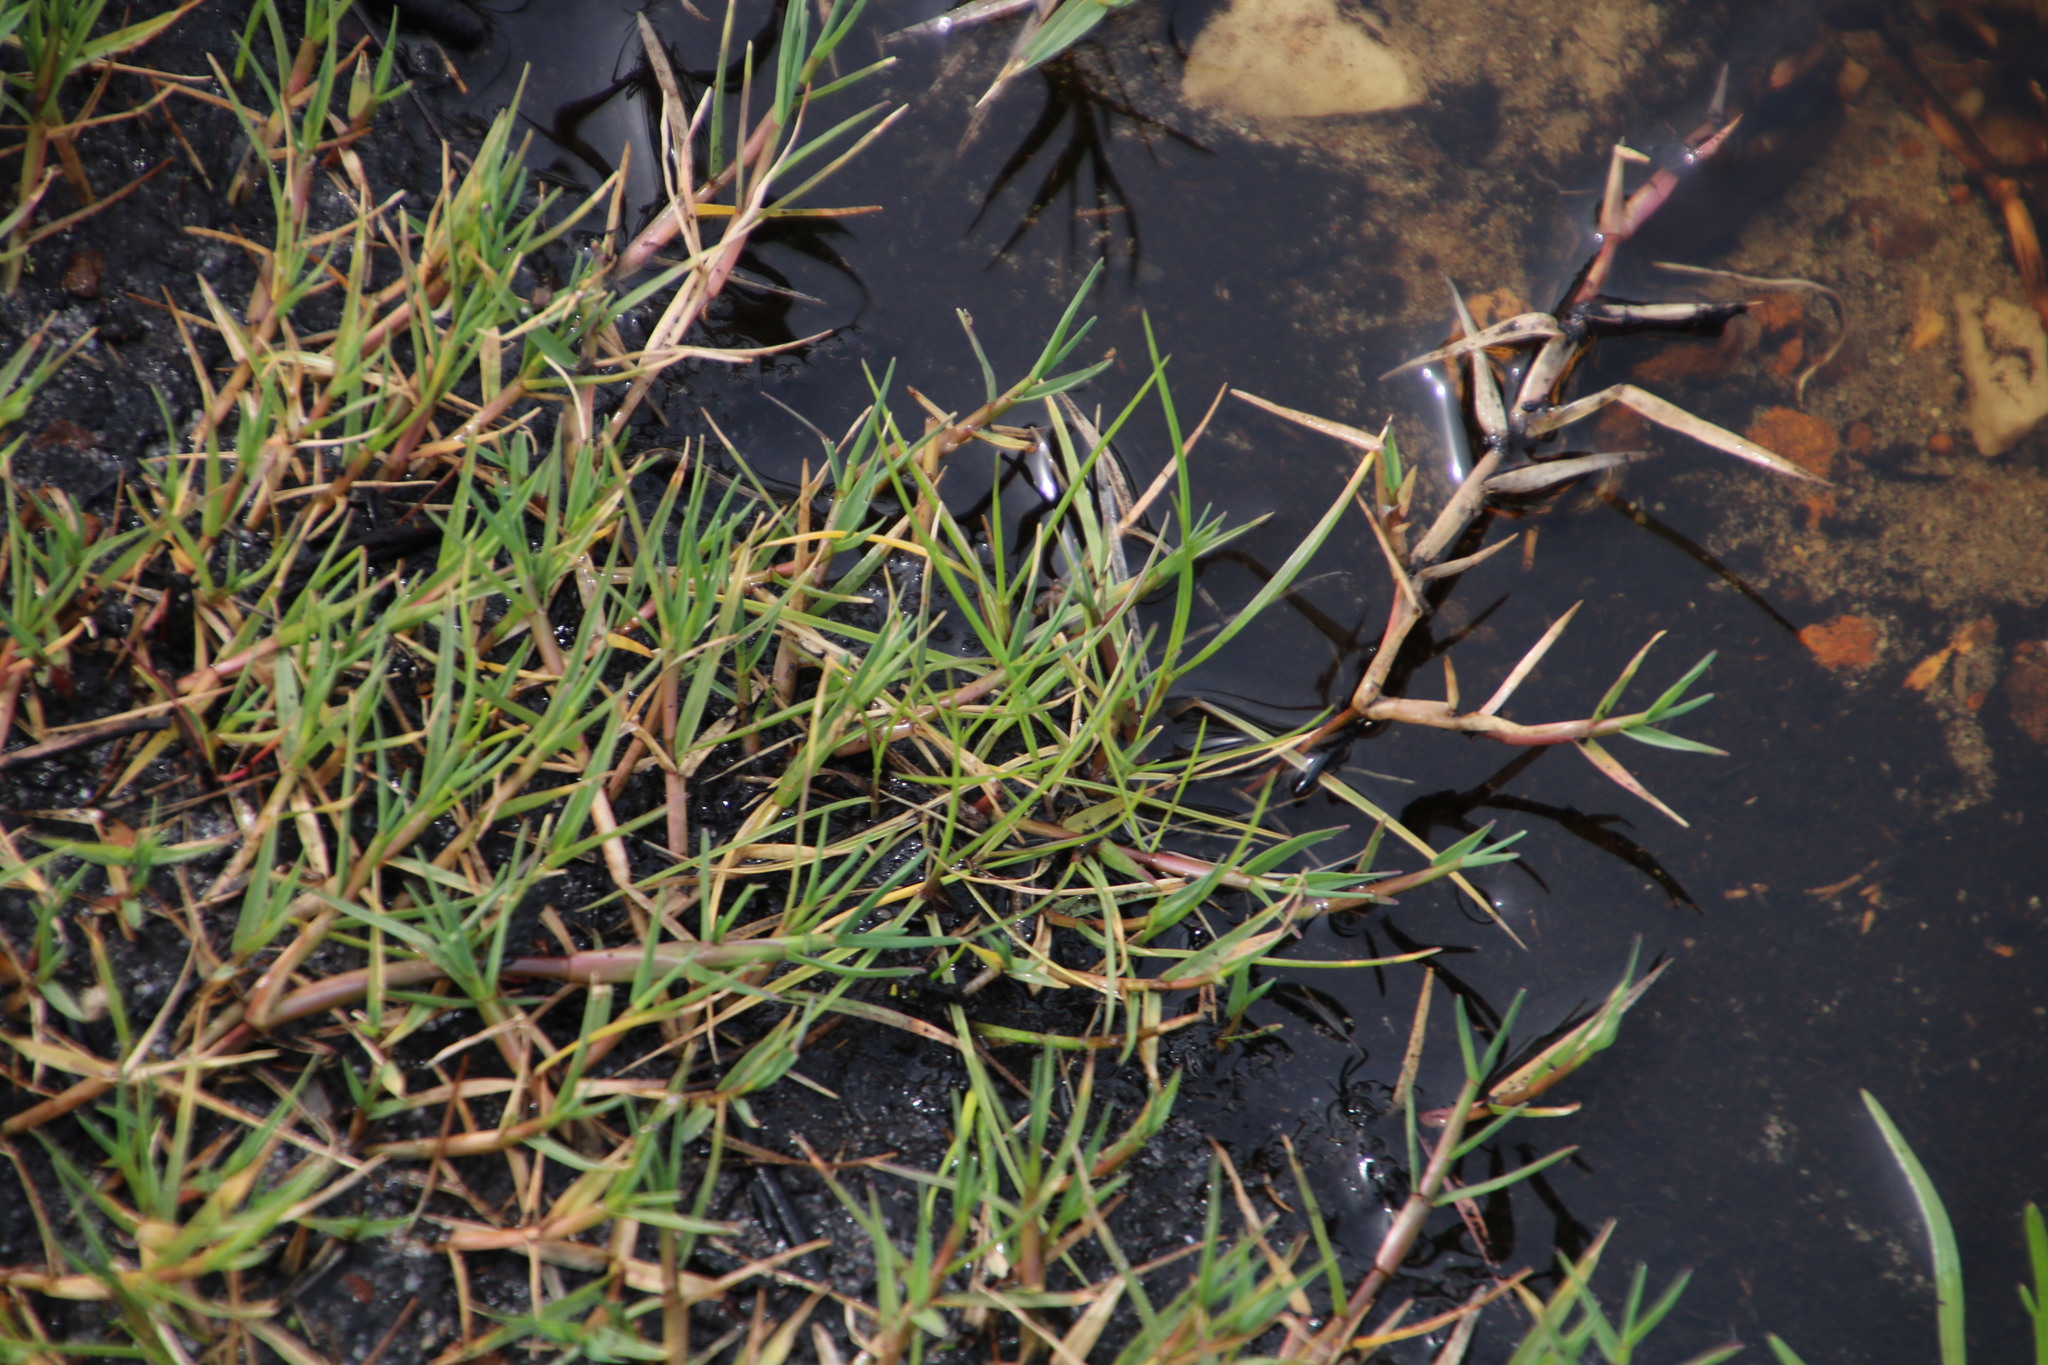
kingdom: Plantae
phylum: Tracheophyta
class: Liliopsida
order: Poales
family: Poaceae
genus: Cynodon
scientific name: Cynodon dactylon
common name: Bermuda grass
